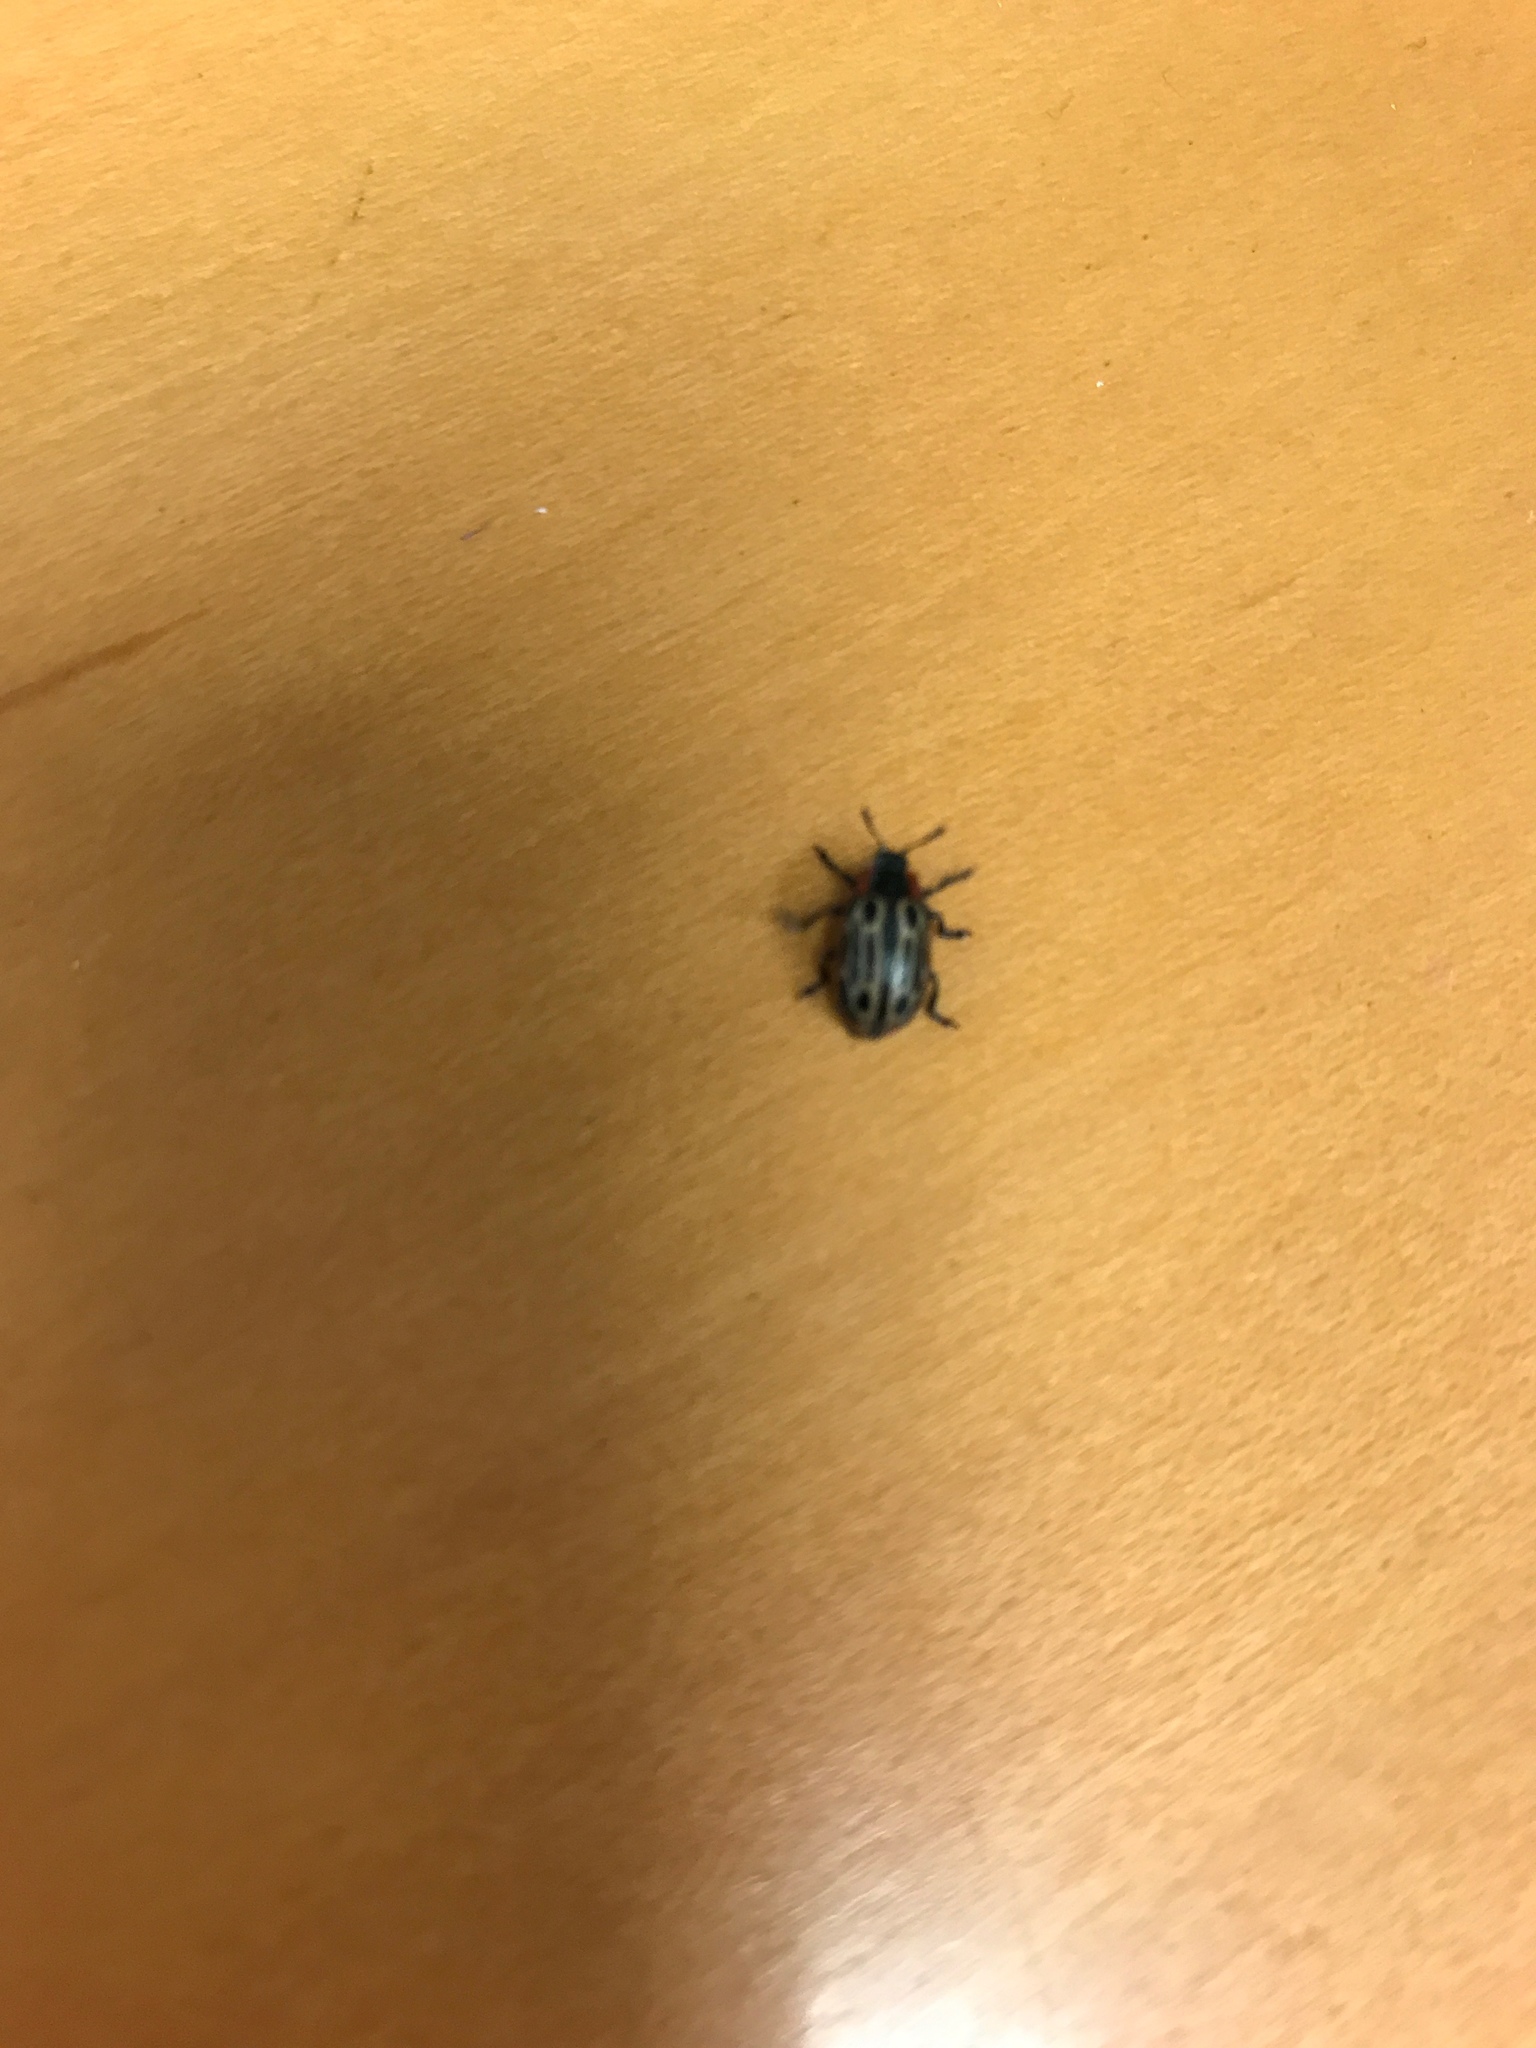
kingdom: Animalia
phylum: Arthropoda
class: Insecta
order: Coleoptera
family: Chrysomelidae
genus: Aethiopocassis
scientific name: Aethiopocassis scripta
